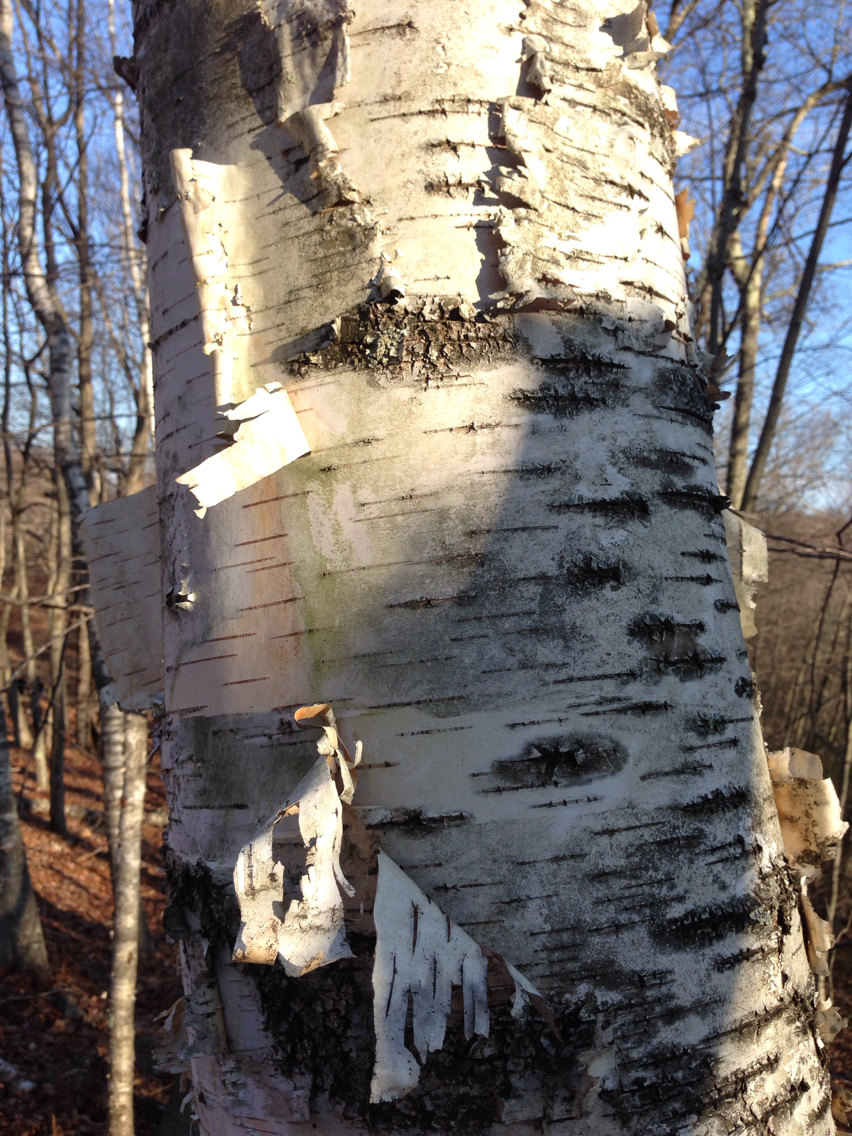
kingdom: Plantae
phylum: Tracheophyta
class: Magnoliopsida
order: Fagales
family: Betulaceae
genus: Betula
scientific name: Betula papyrifera
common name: Paper birch
